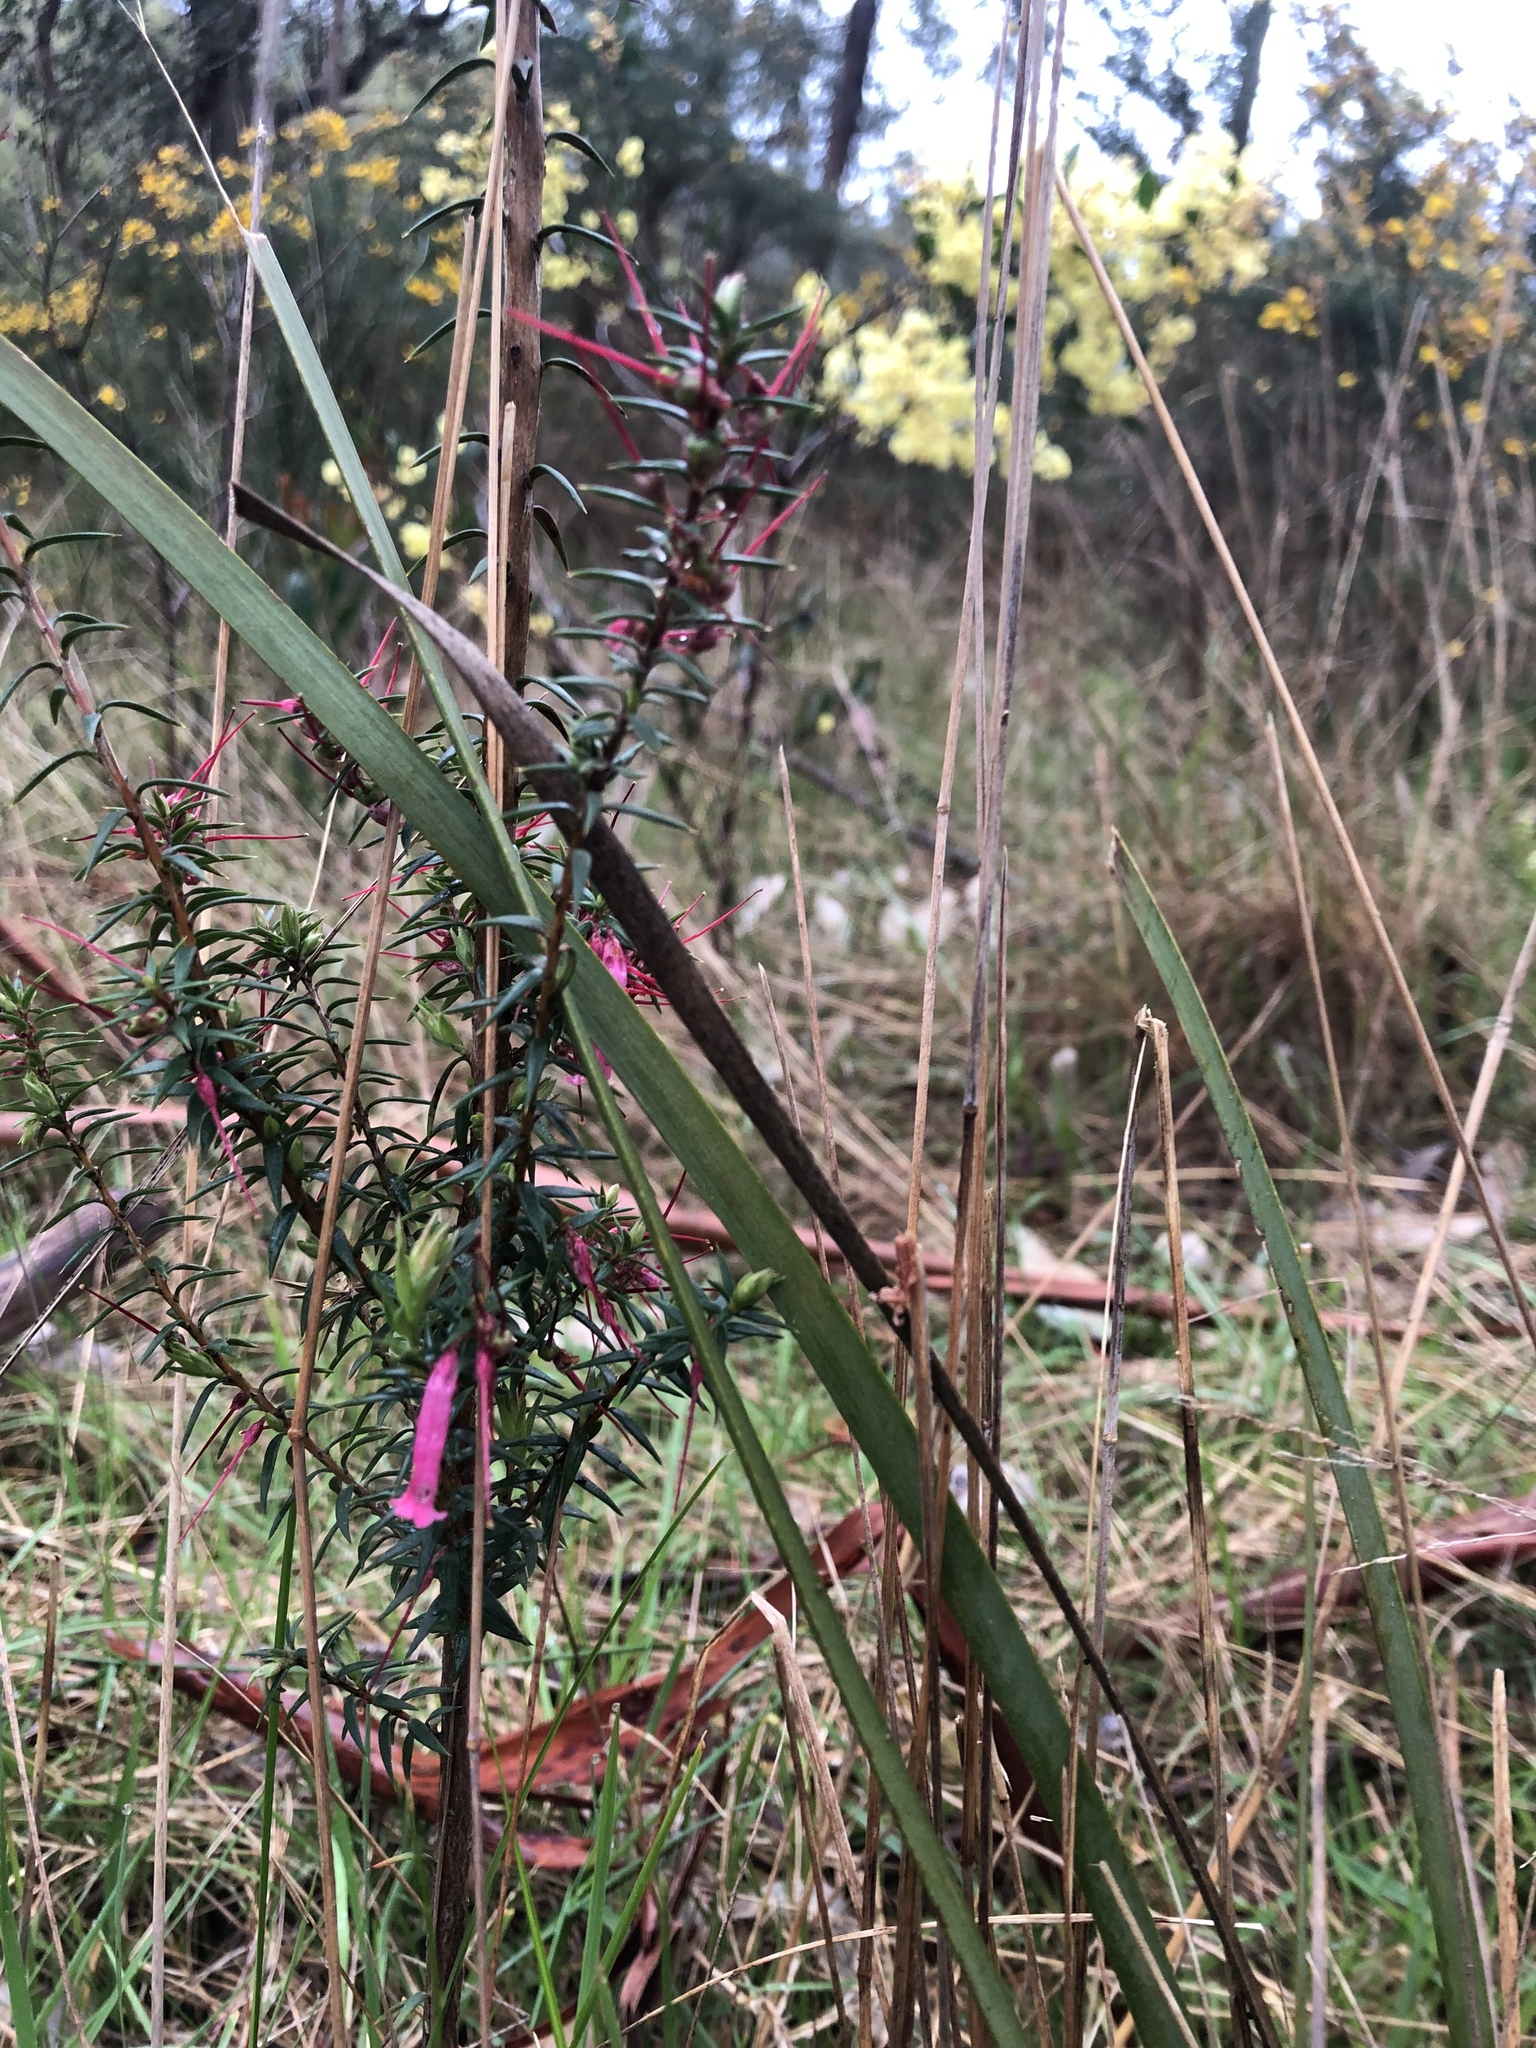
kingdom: Plantae
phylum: Tracheophyta
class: Magnoliopsida
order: Ericales
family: Ericaceae
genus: Epacris
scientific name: Epacris impressa
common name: Common-heath
